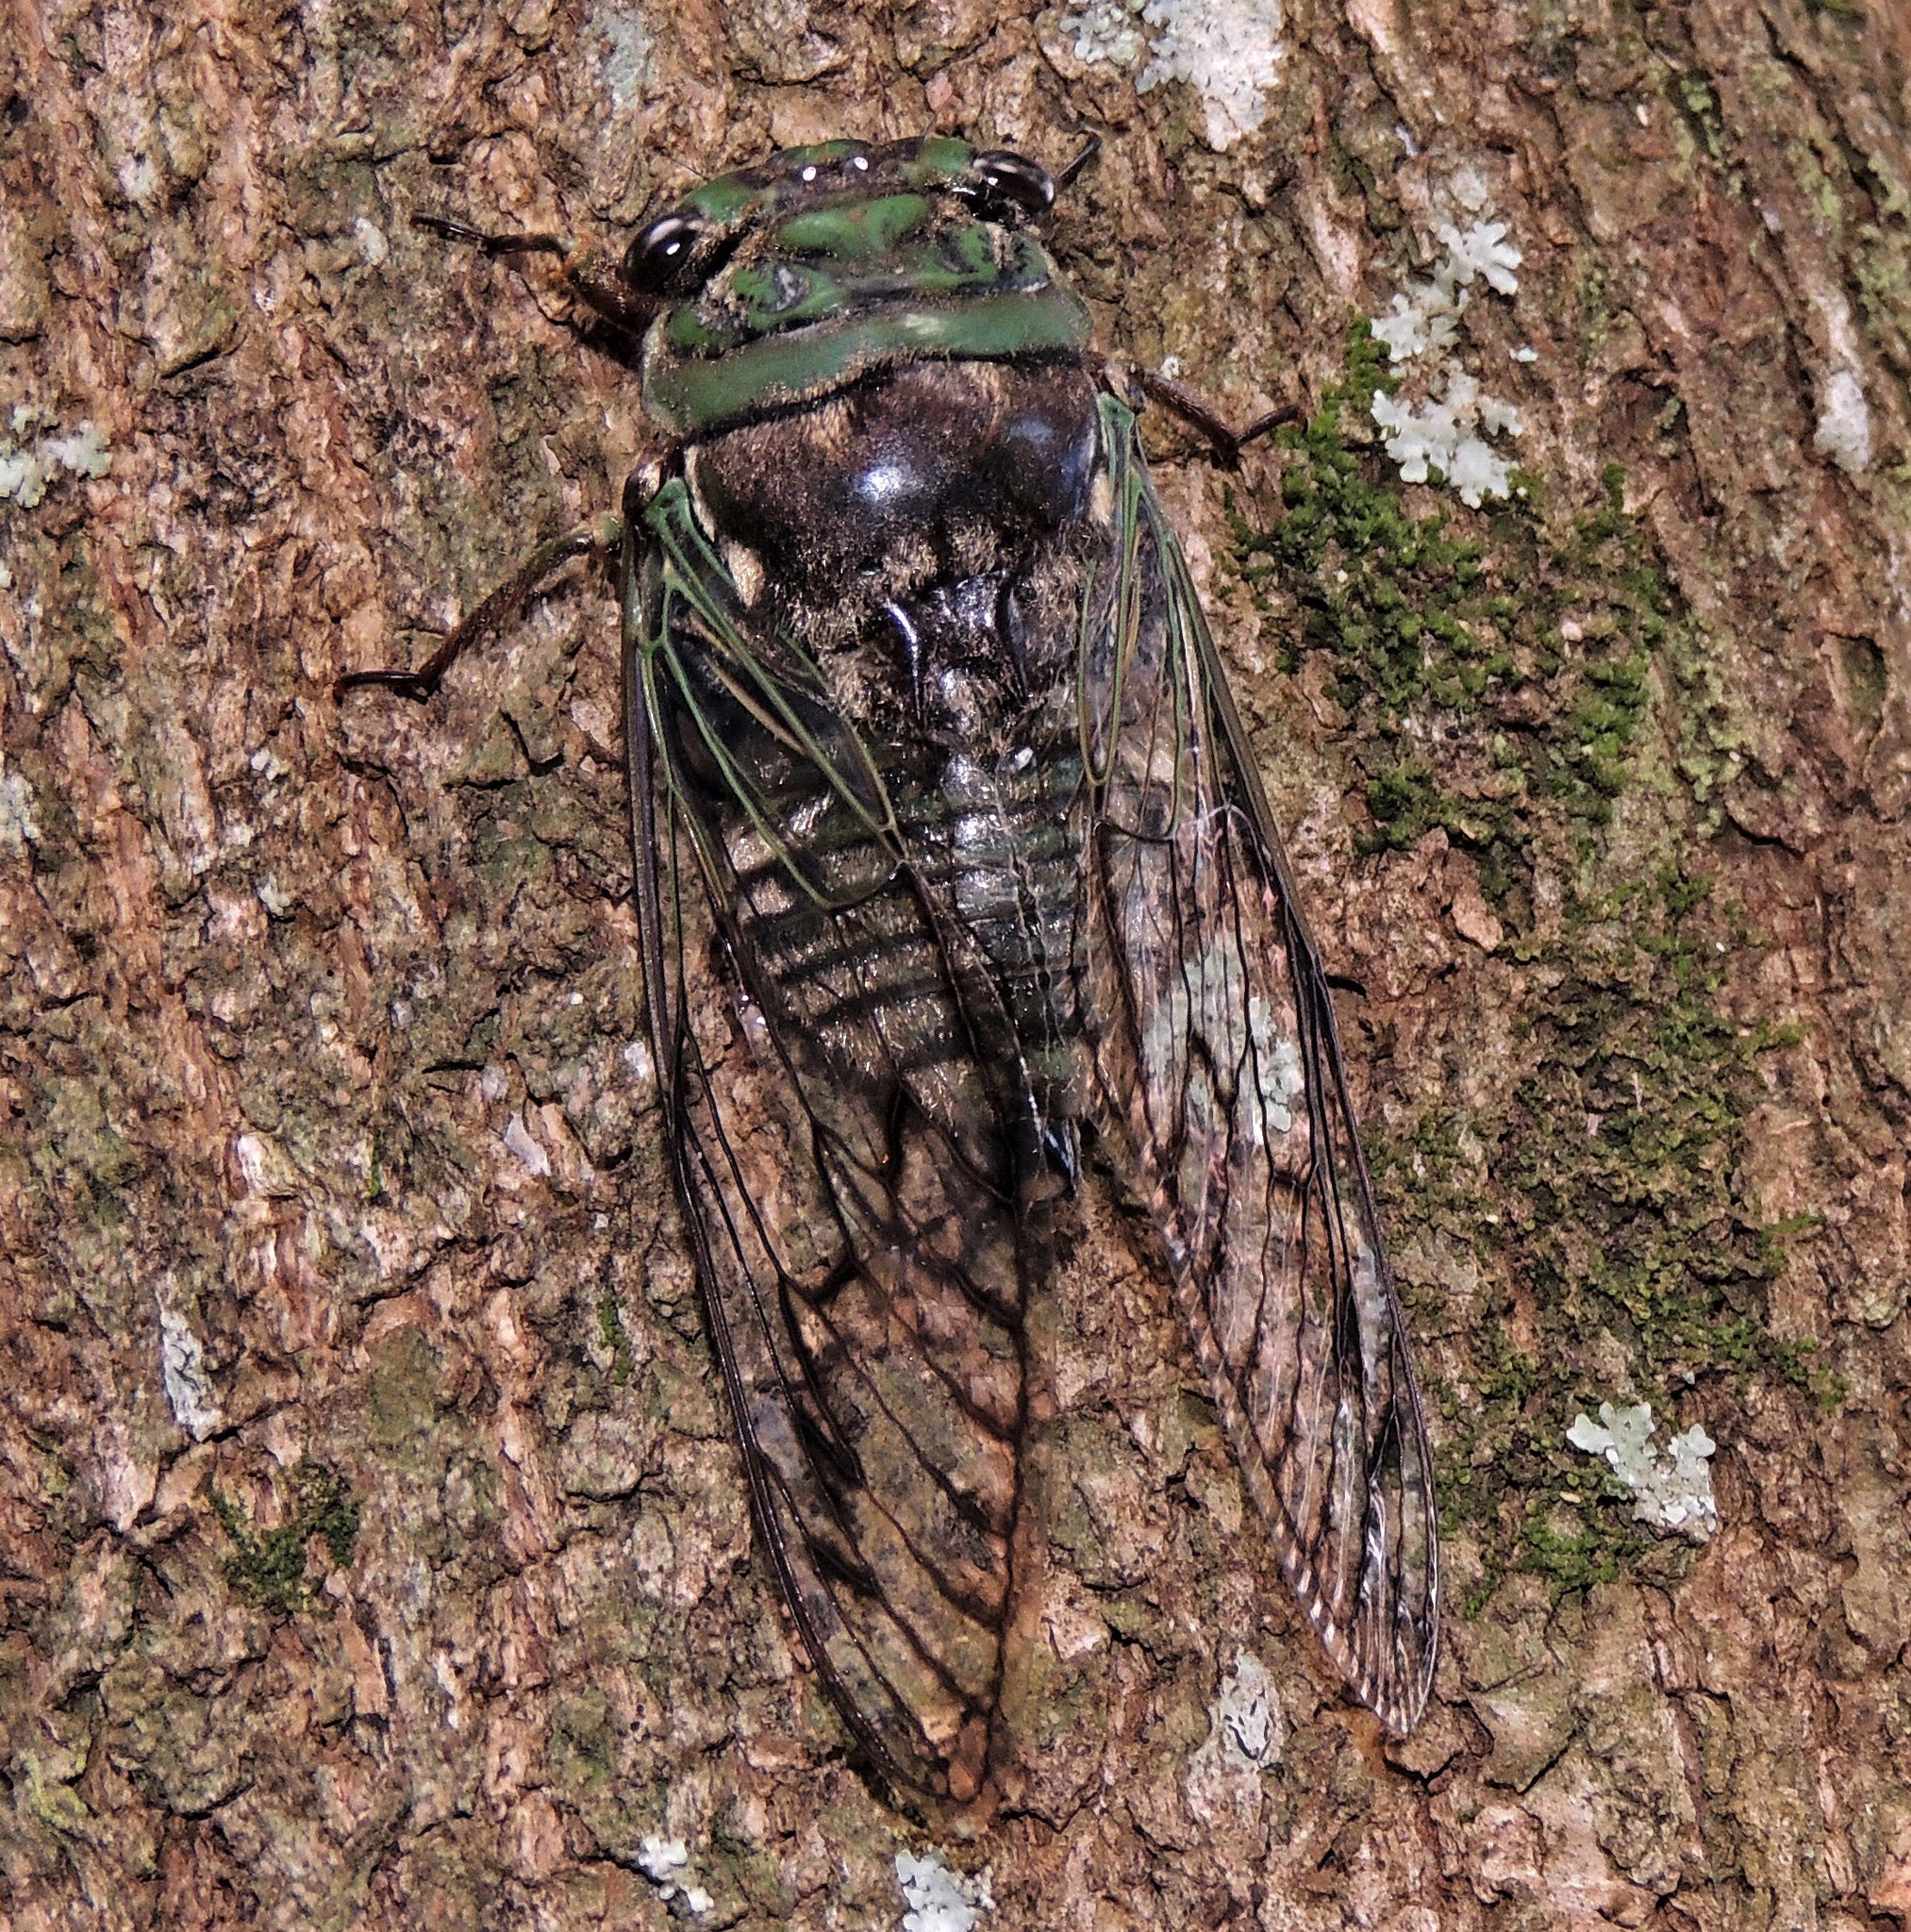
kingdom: Animalia
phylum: Arthropoda
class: Insecta
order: Hemiptera
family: Cicadidae
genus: Fidicina
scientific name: Fidicina torresi
